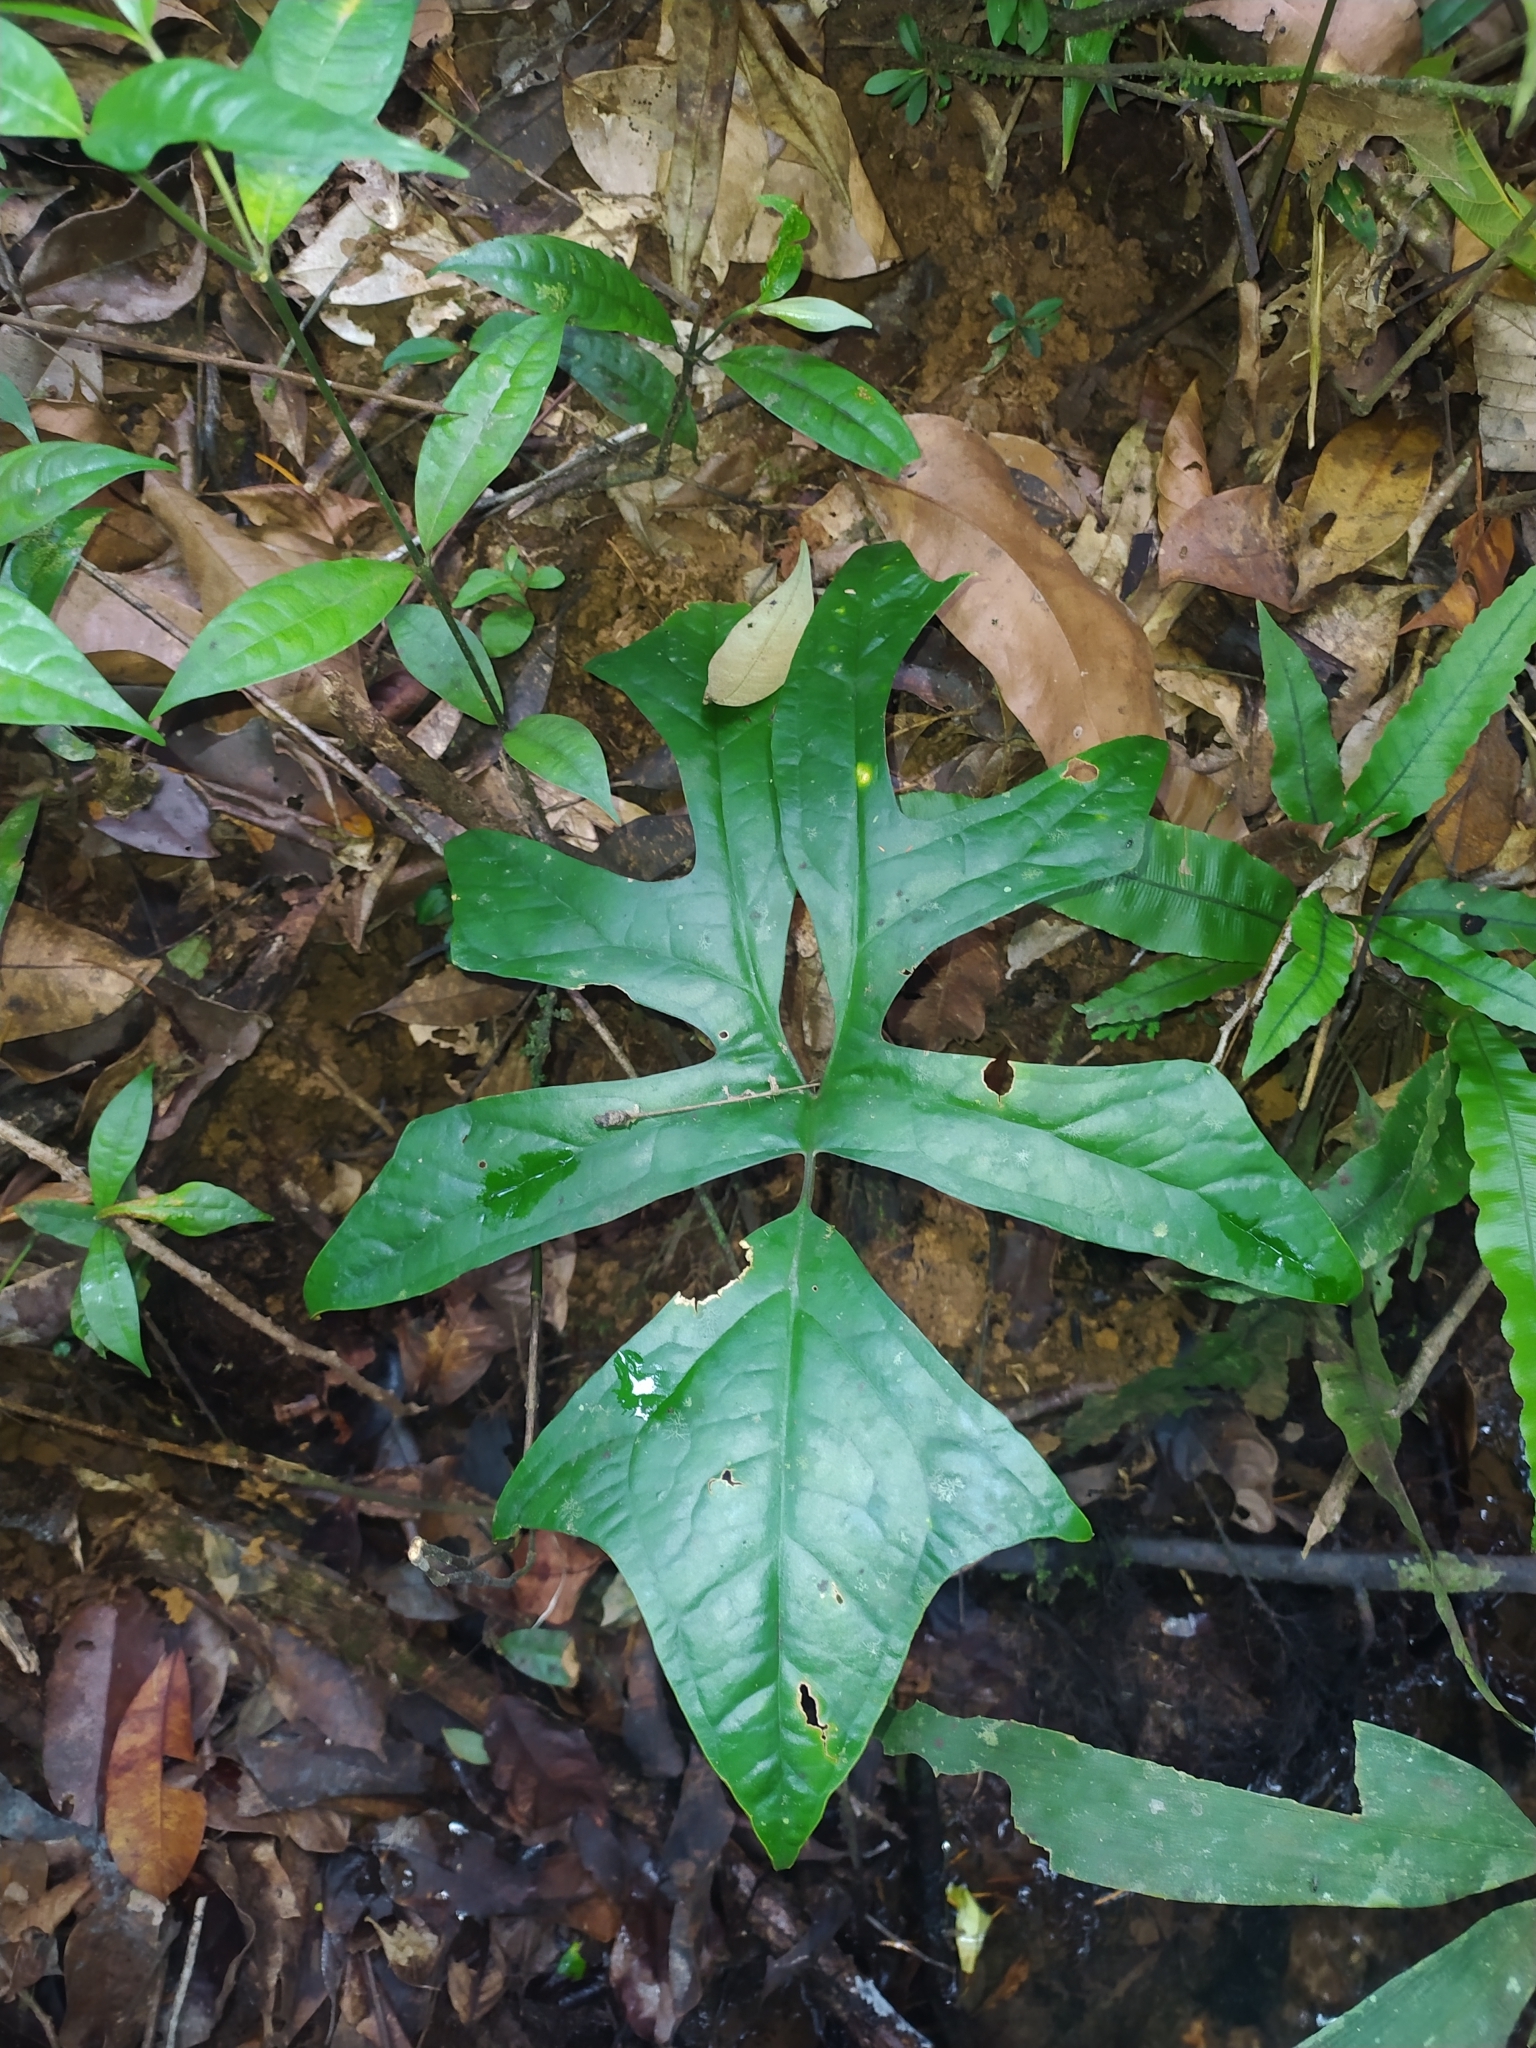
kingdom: Plantae
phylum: Tracheophyta
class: Liliopsida
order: Alismatales
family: Araceae
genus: Anaphyllopsis
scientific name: Anaphyllopsis americana
